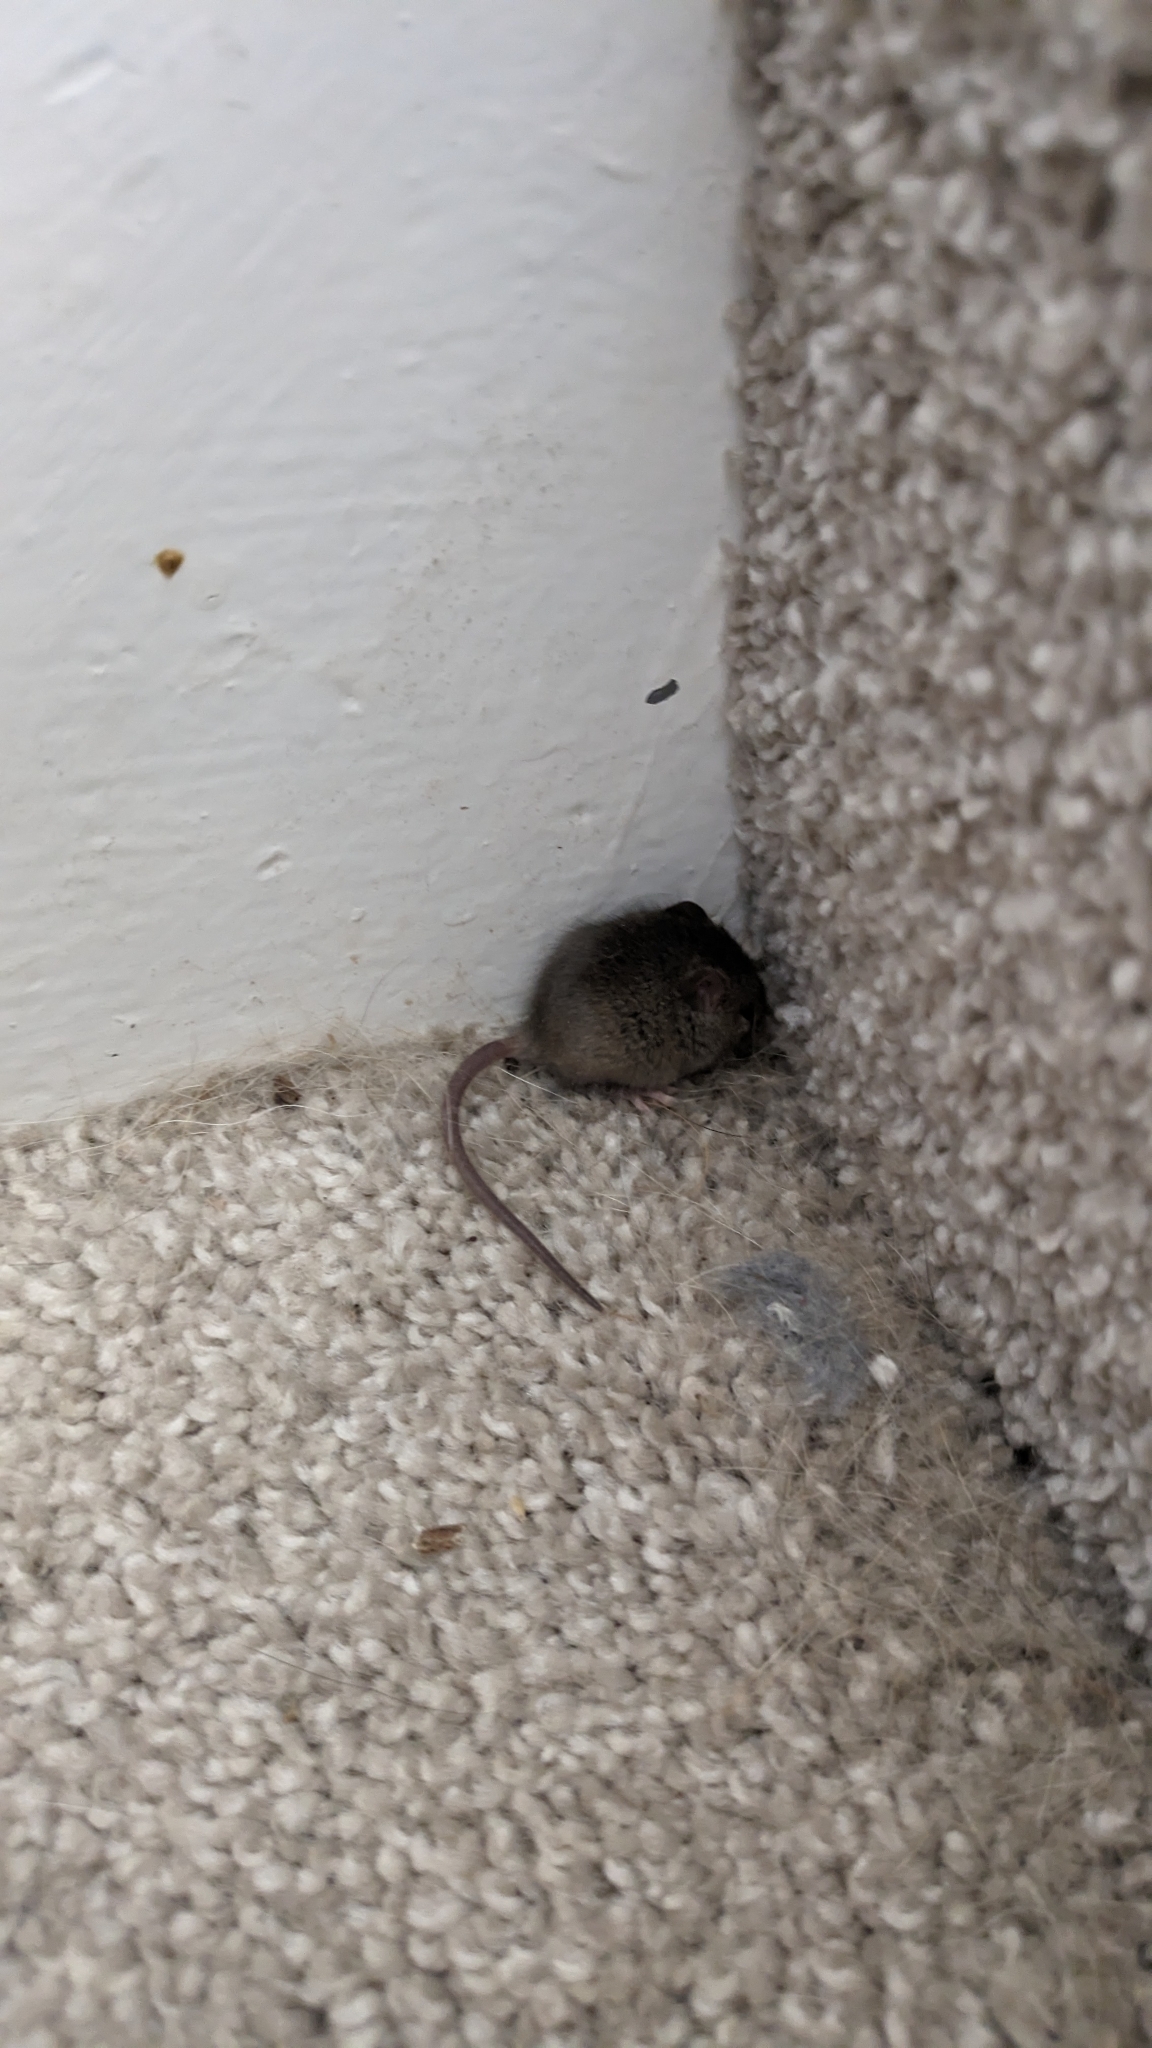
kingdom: Animalia
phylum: Chordata
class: Mammalia
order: Rodentia
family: Muridae
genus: Mus
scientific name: Mus musculus
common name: House mouse
